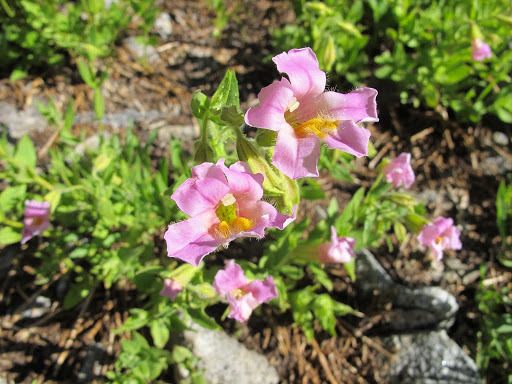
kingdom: Plantae
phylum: Tracheophyta
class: Magnoliopsida
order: Lamiales
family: Phrymaceae
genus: Erythranthe
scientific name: Erythranthe erubescens
